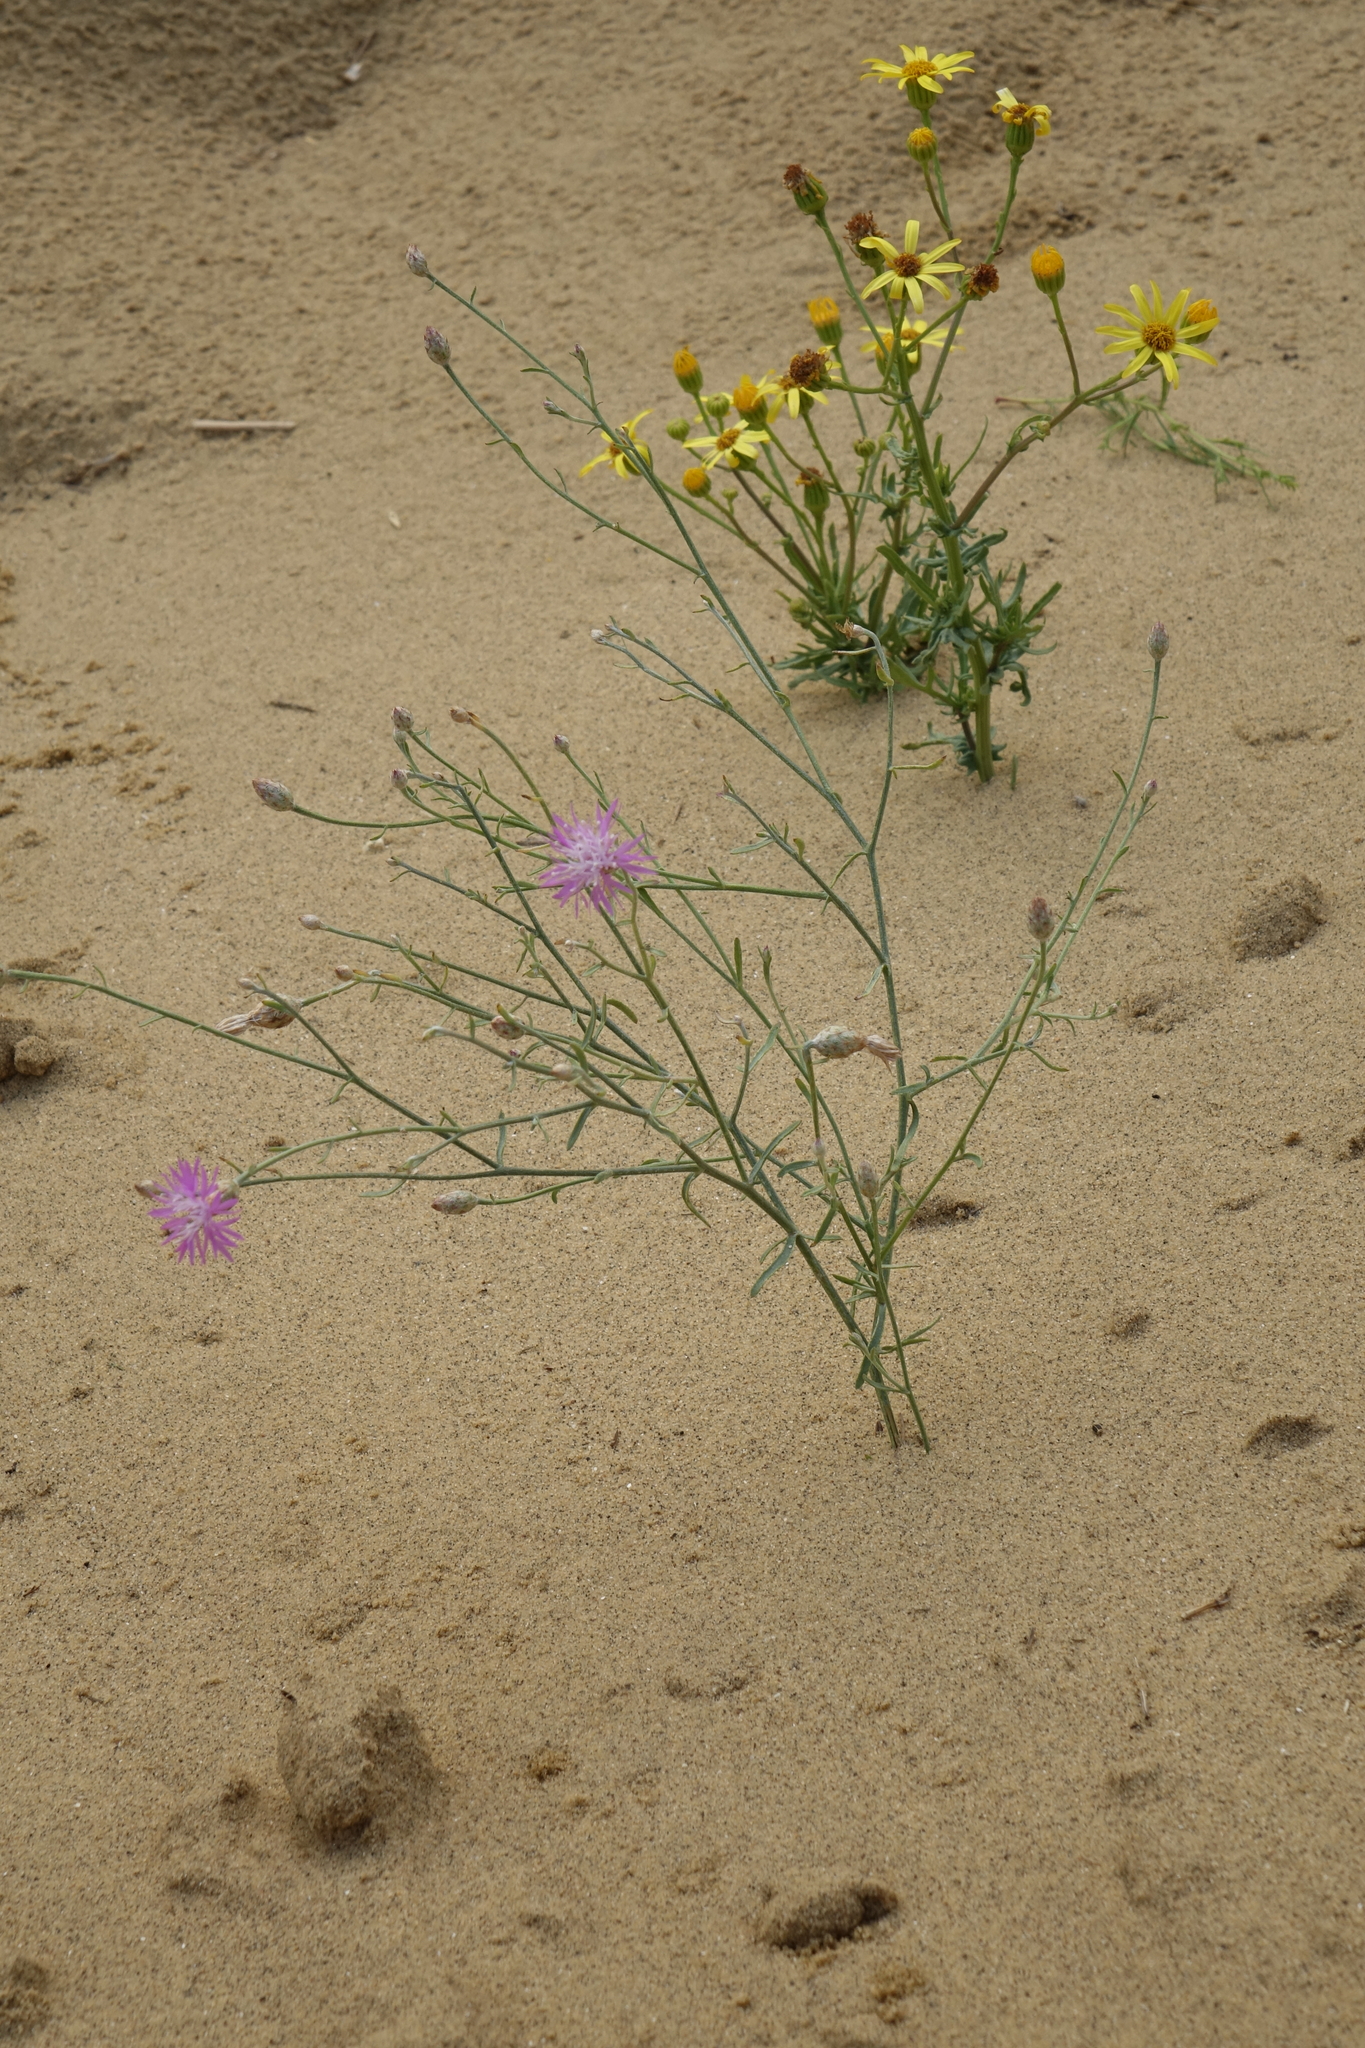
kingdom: Plantae
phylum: Tracheophyta
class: Magnoliopsida
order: Asterales
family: Asteraceae
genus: Jacobaea
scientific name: Jacobaea schischkiniana
